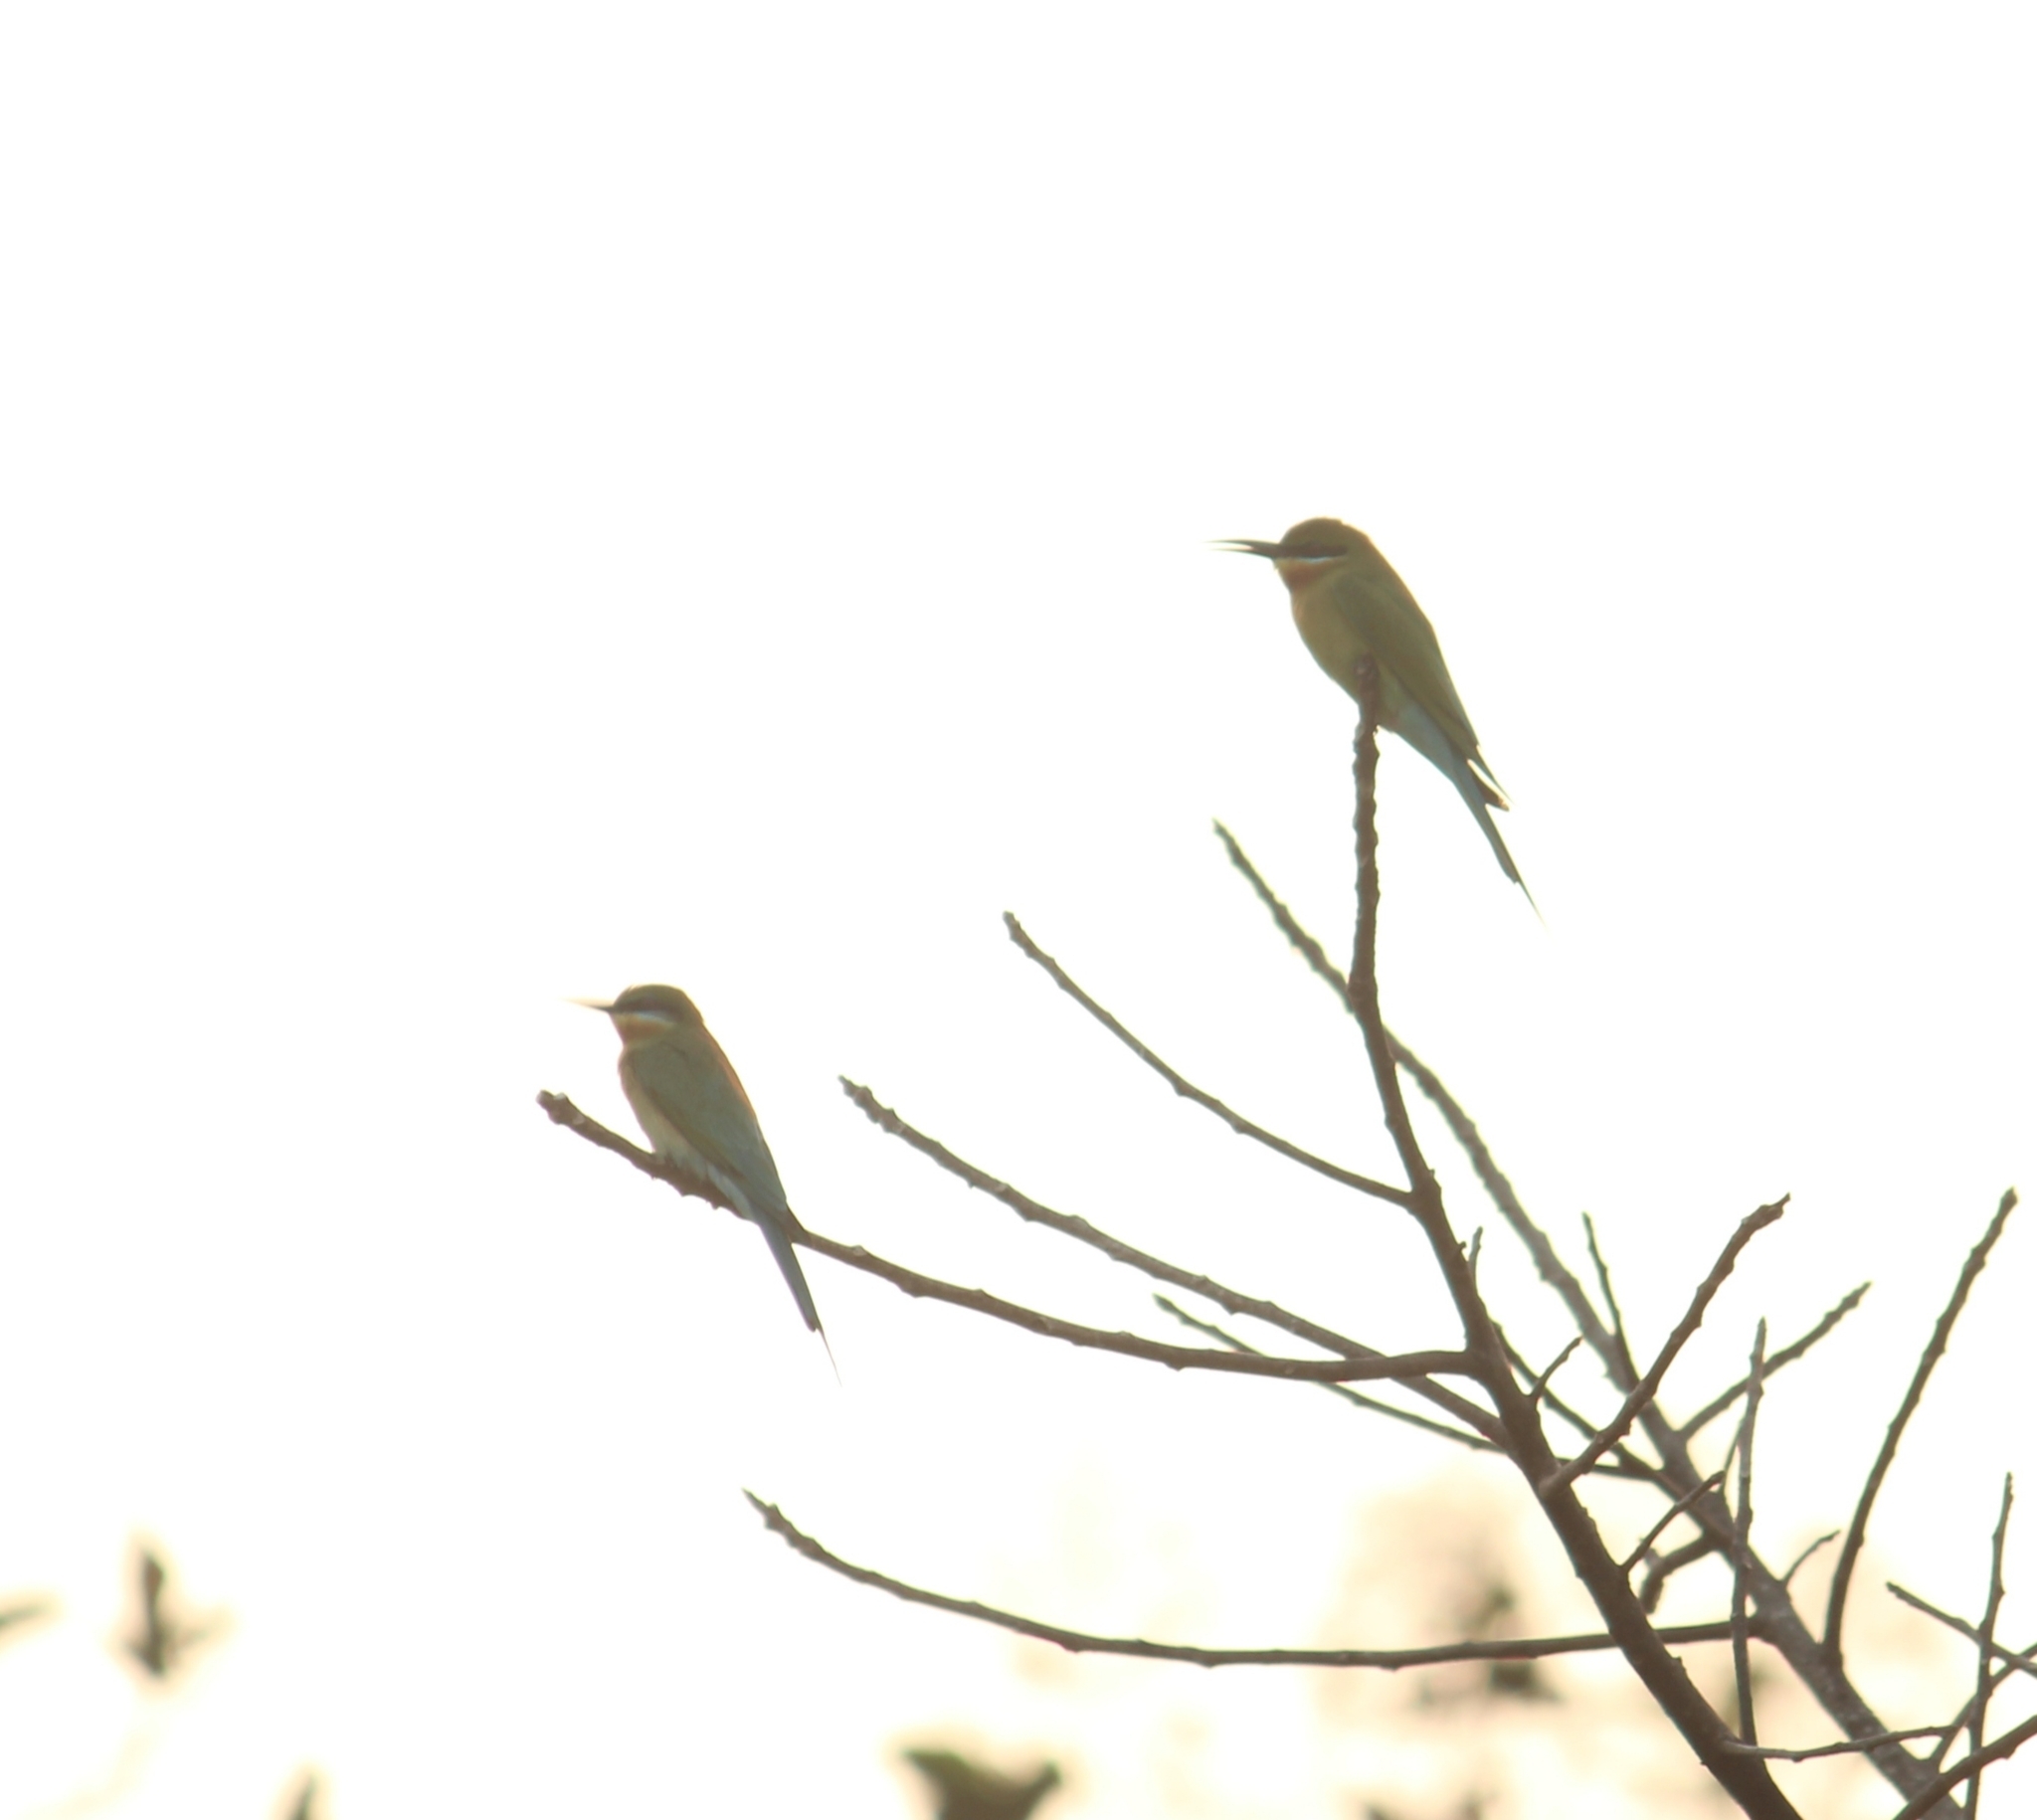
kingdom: Animalia
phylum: Chordata
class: Aves
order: Coraciiformes
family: Meropidae
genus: Merops
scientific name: Merops philippinus
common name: Blue-tailed bee-eater
